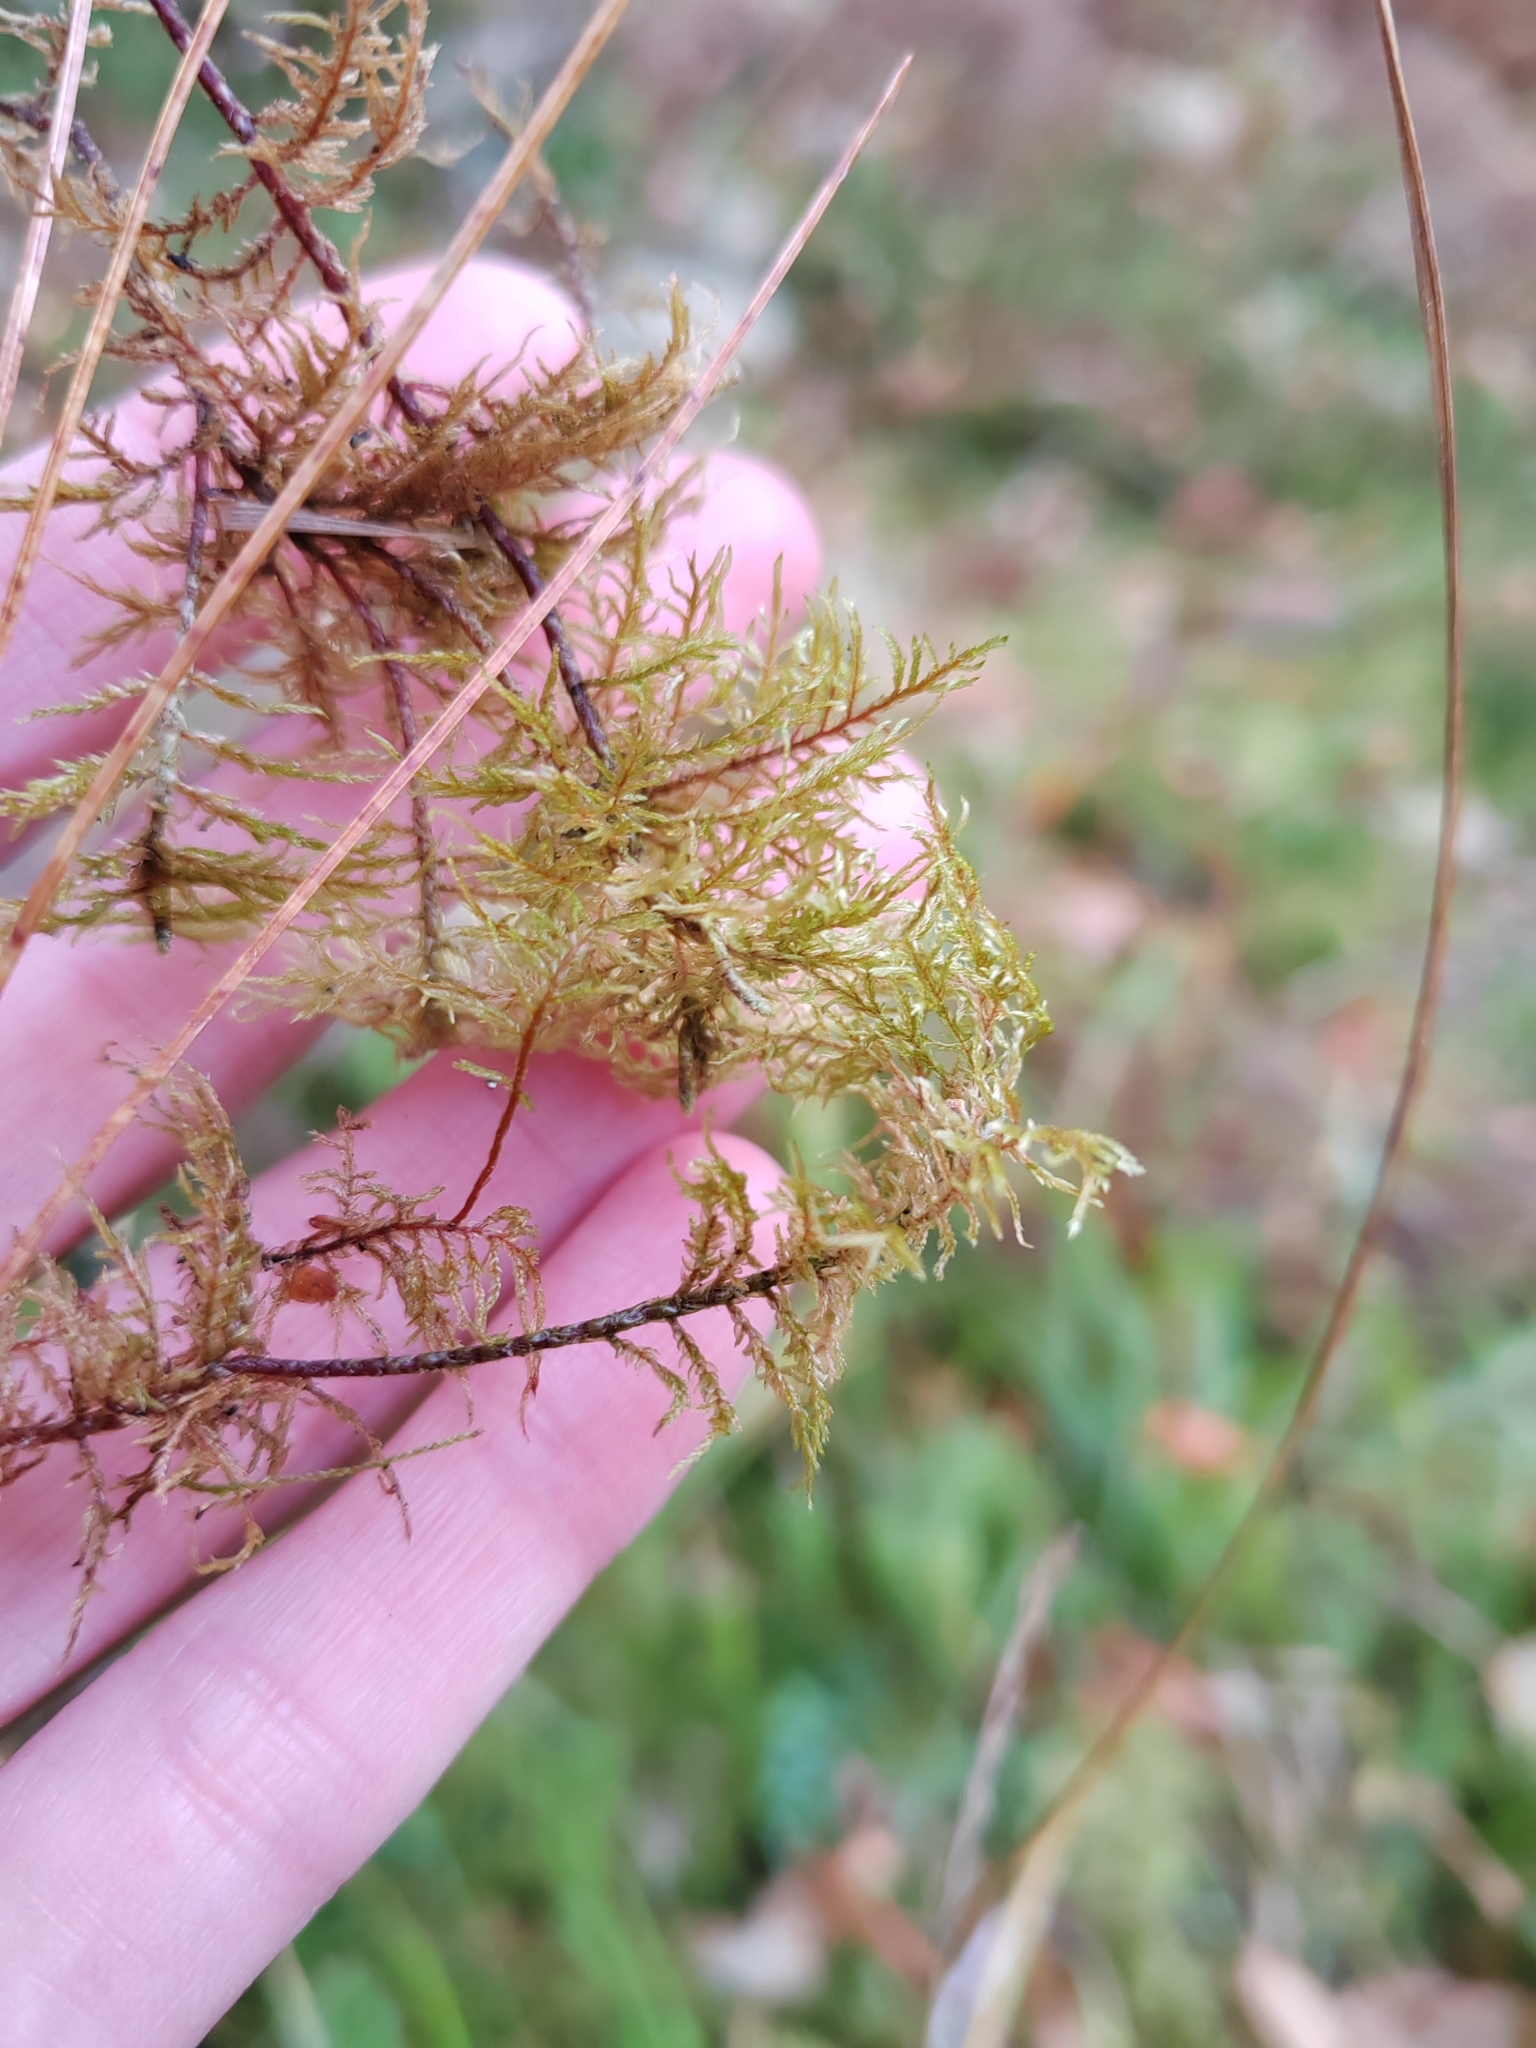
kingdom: Plantae
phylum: Bryophyta
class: Bryopsida
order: Hypnales
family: Hylocomiaceae
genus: Hylocomium
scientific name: Hylocomium splendens
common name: Stairstep moss
